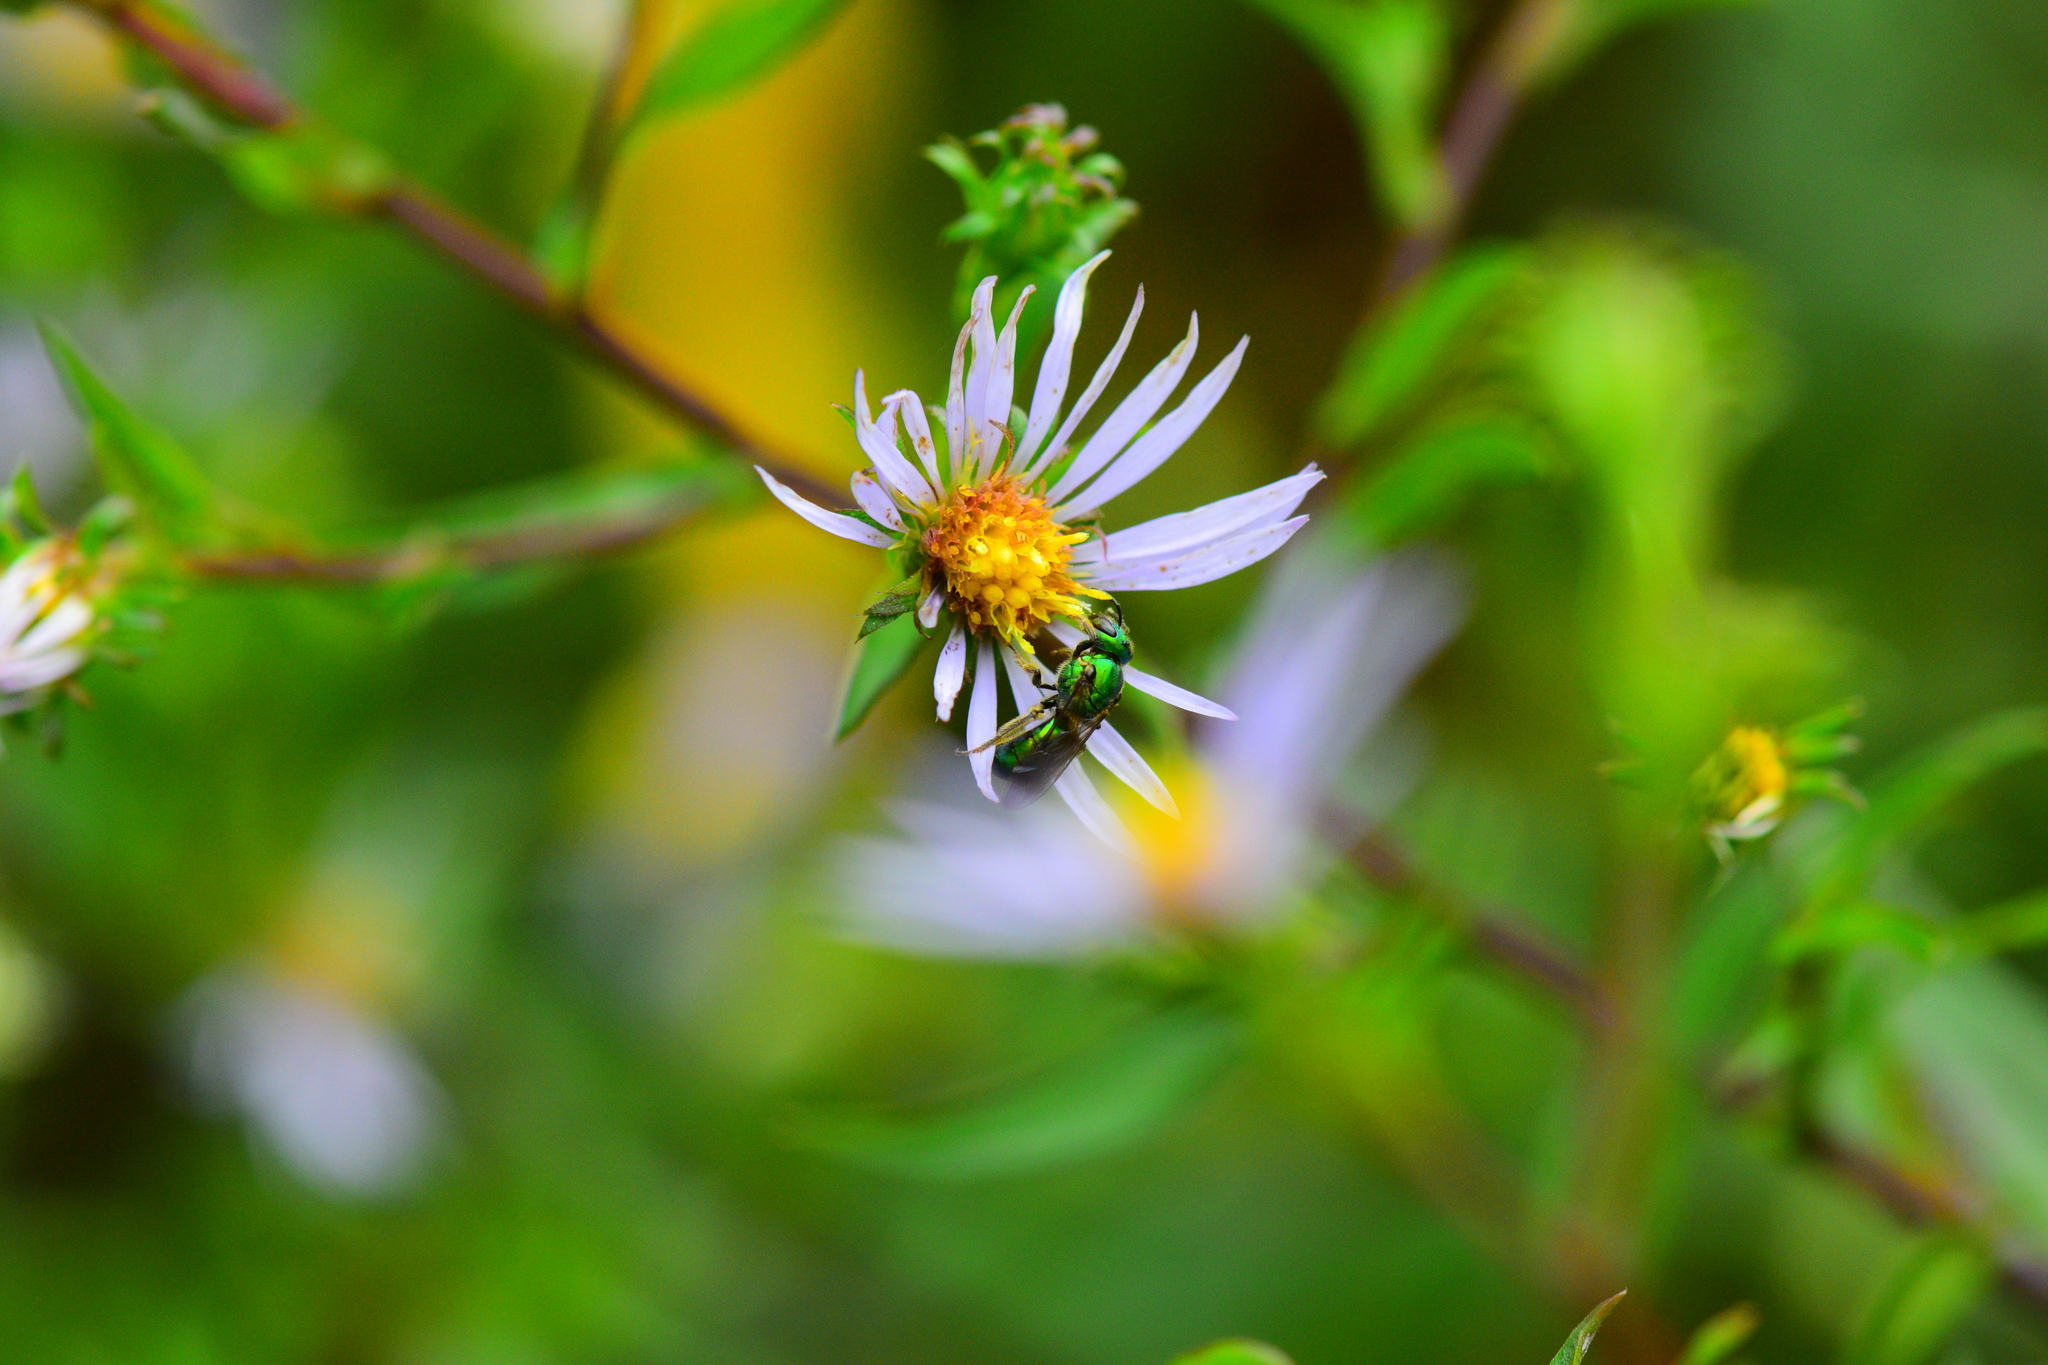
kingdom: Animalia
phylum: Arthropoda
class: Insecta
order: Hymenoptera
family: Halictidae
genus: Augochlora
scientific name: Augochlora pura
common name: Pure green sweat bee
